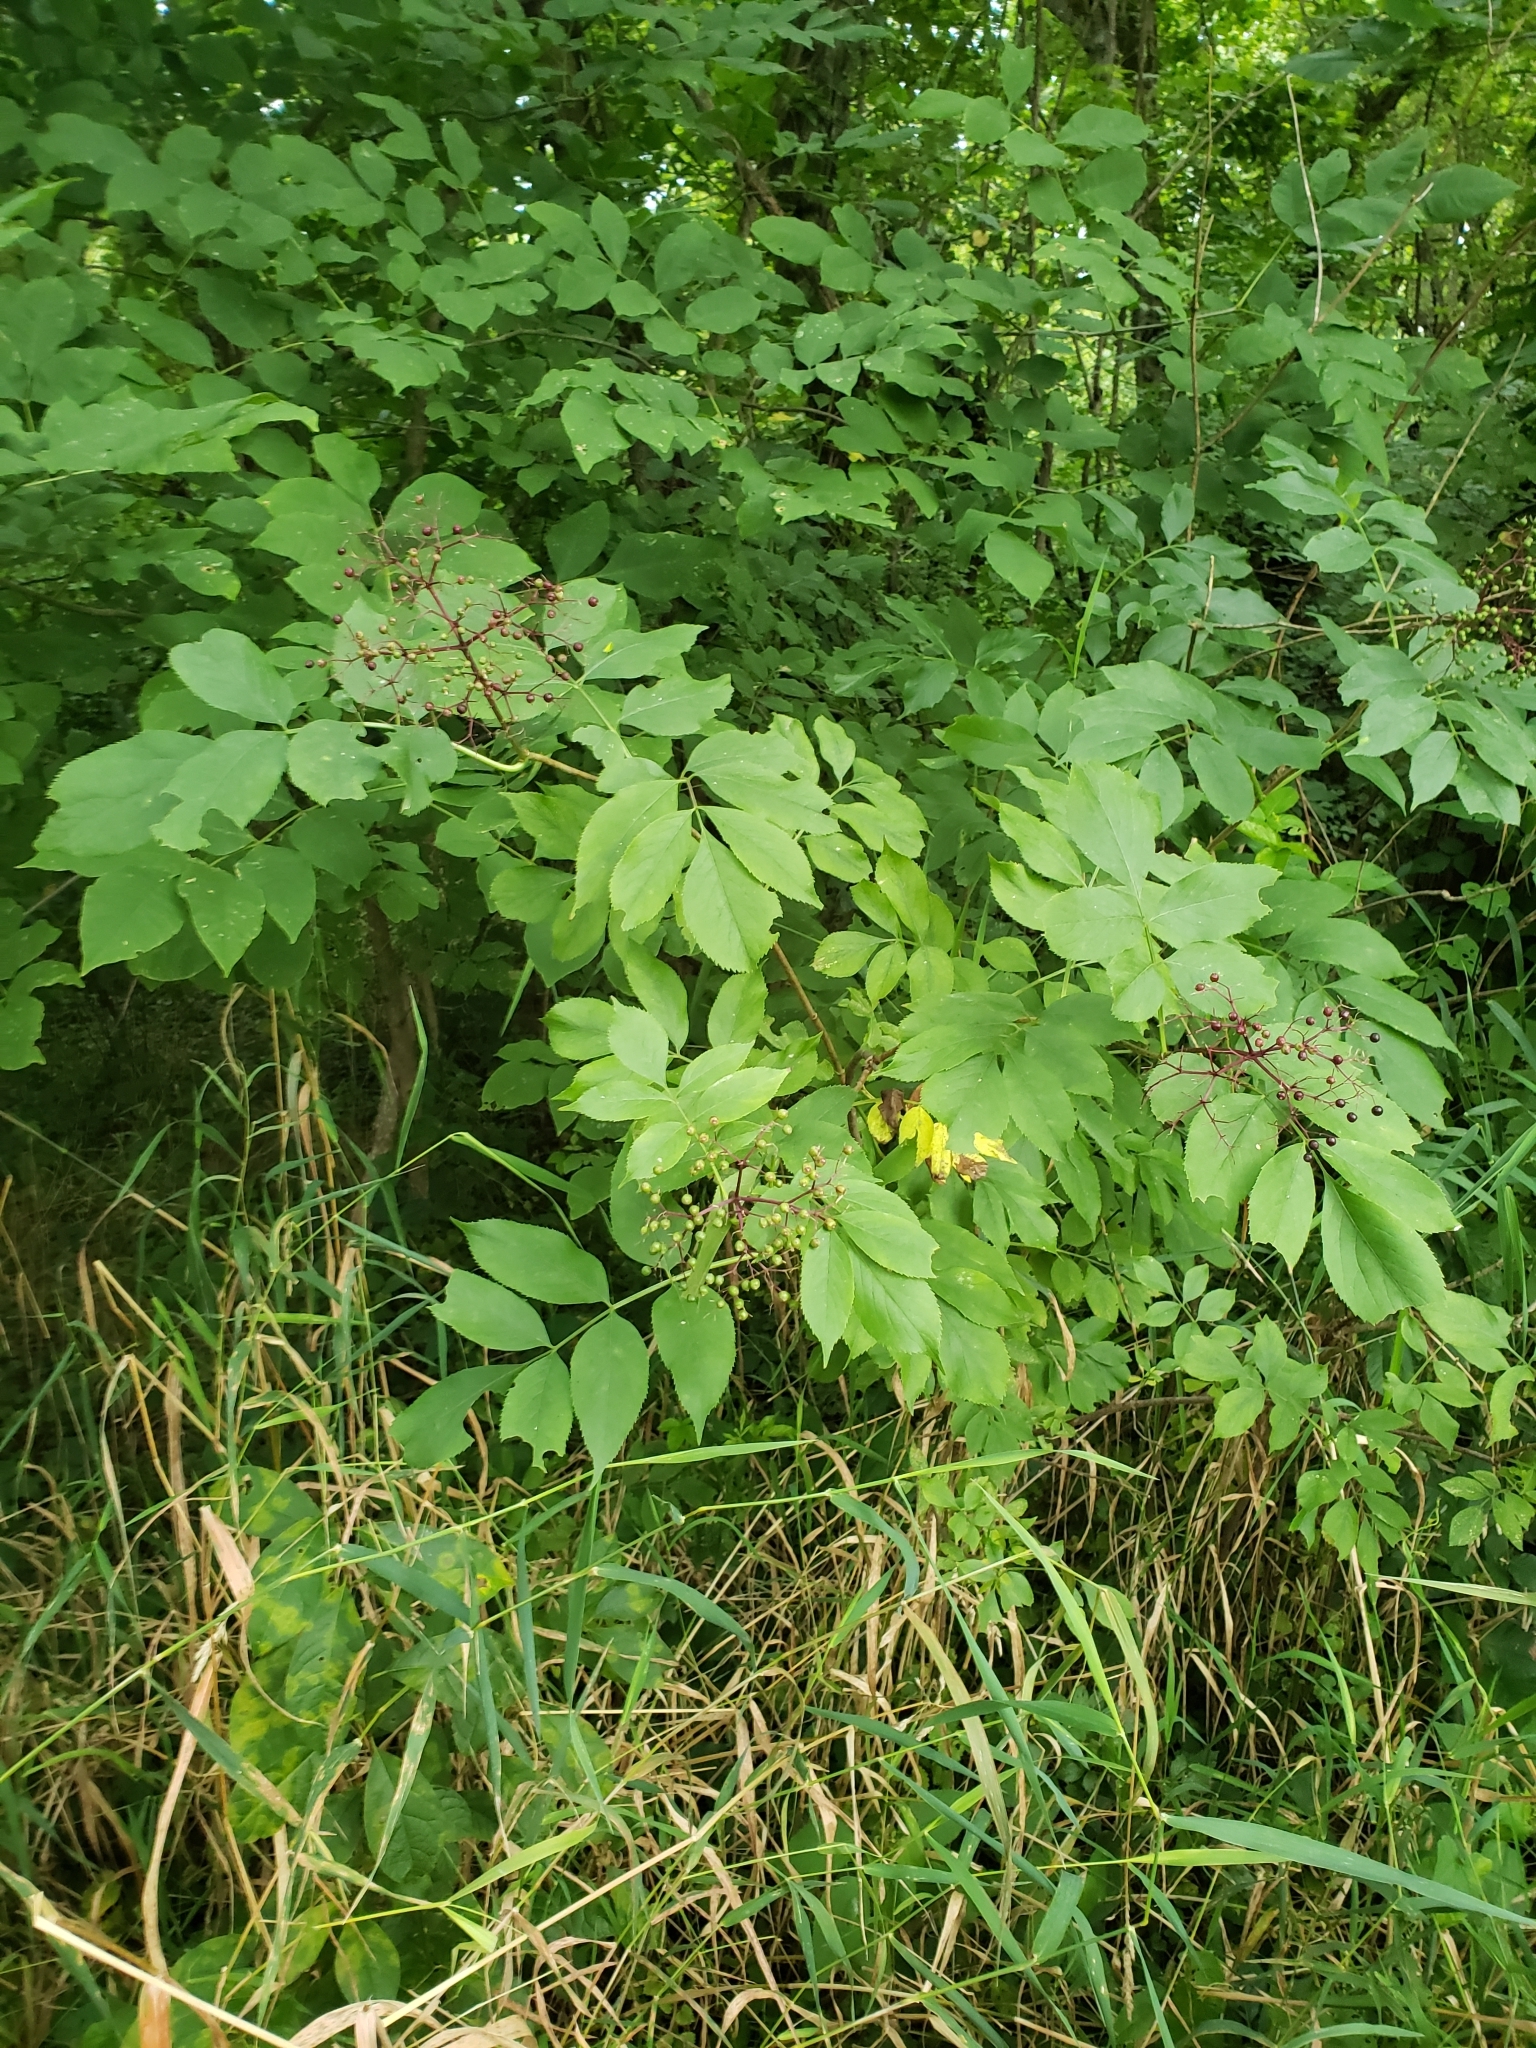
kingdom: Plantae
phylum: Tracheophyta
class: Magnoliopsida
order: Dipsacales
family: Viburnaceae
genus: Sambucus
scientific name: Sambucus canadensis
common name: American elder
